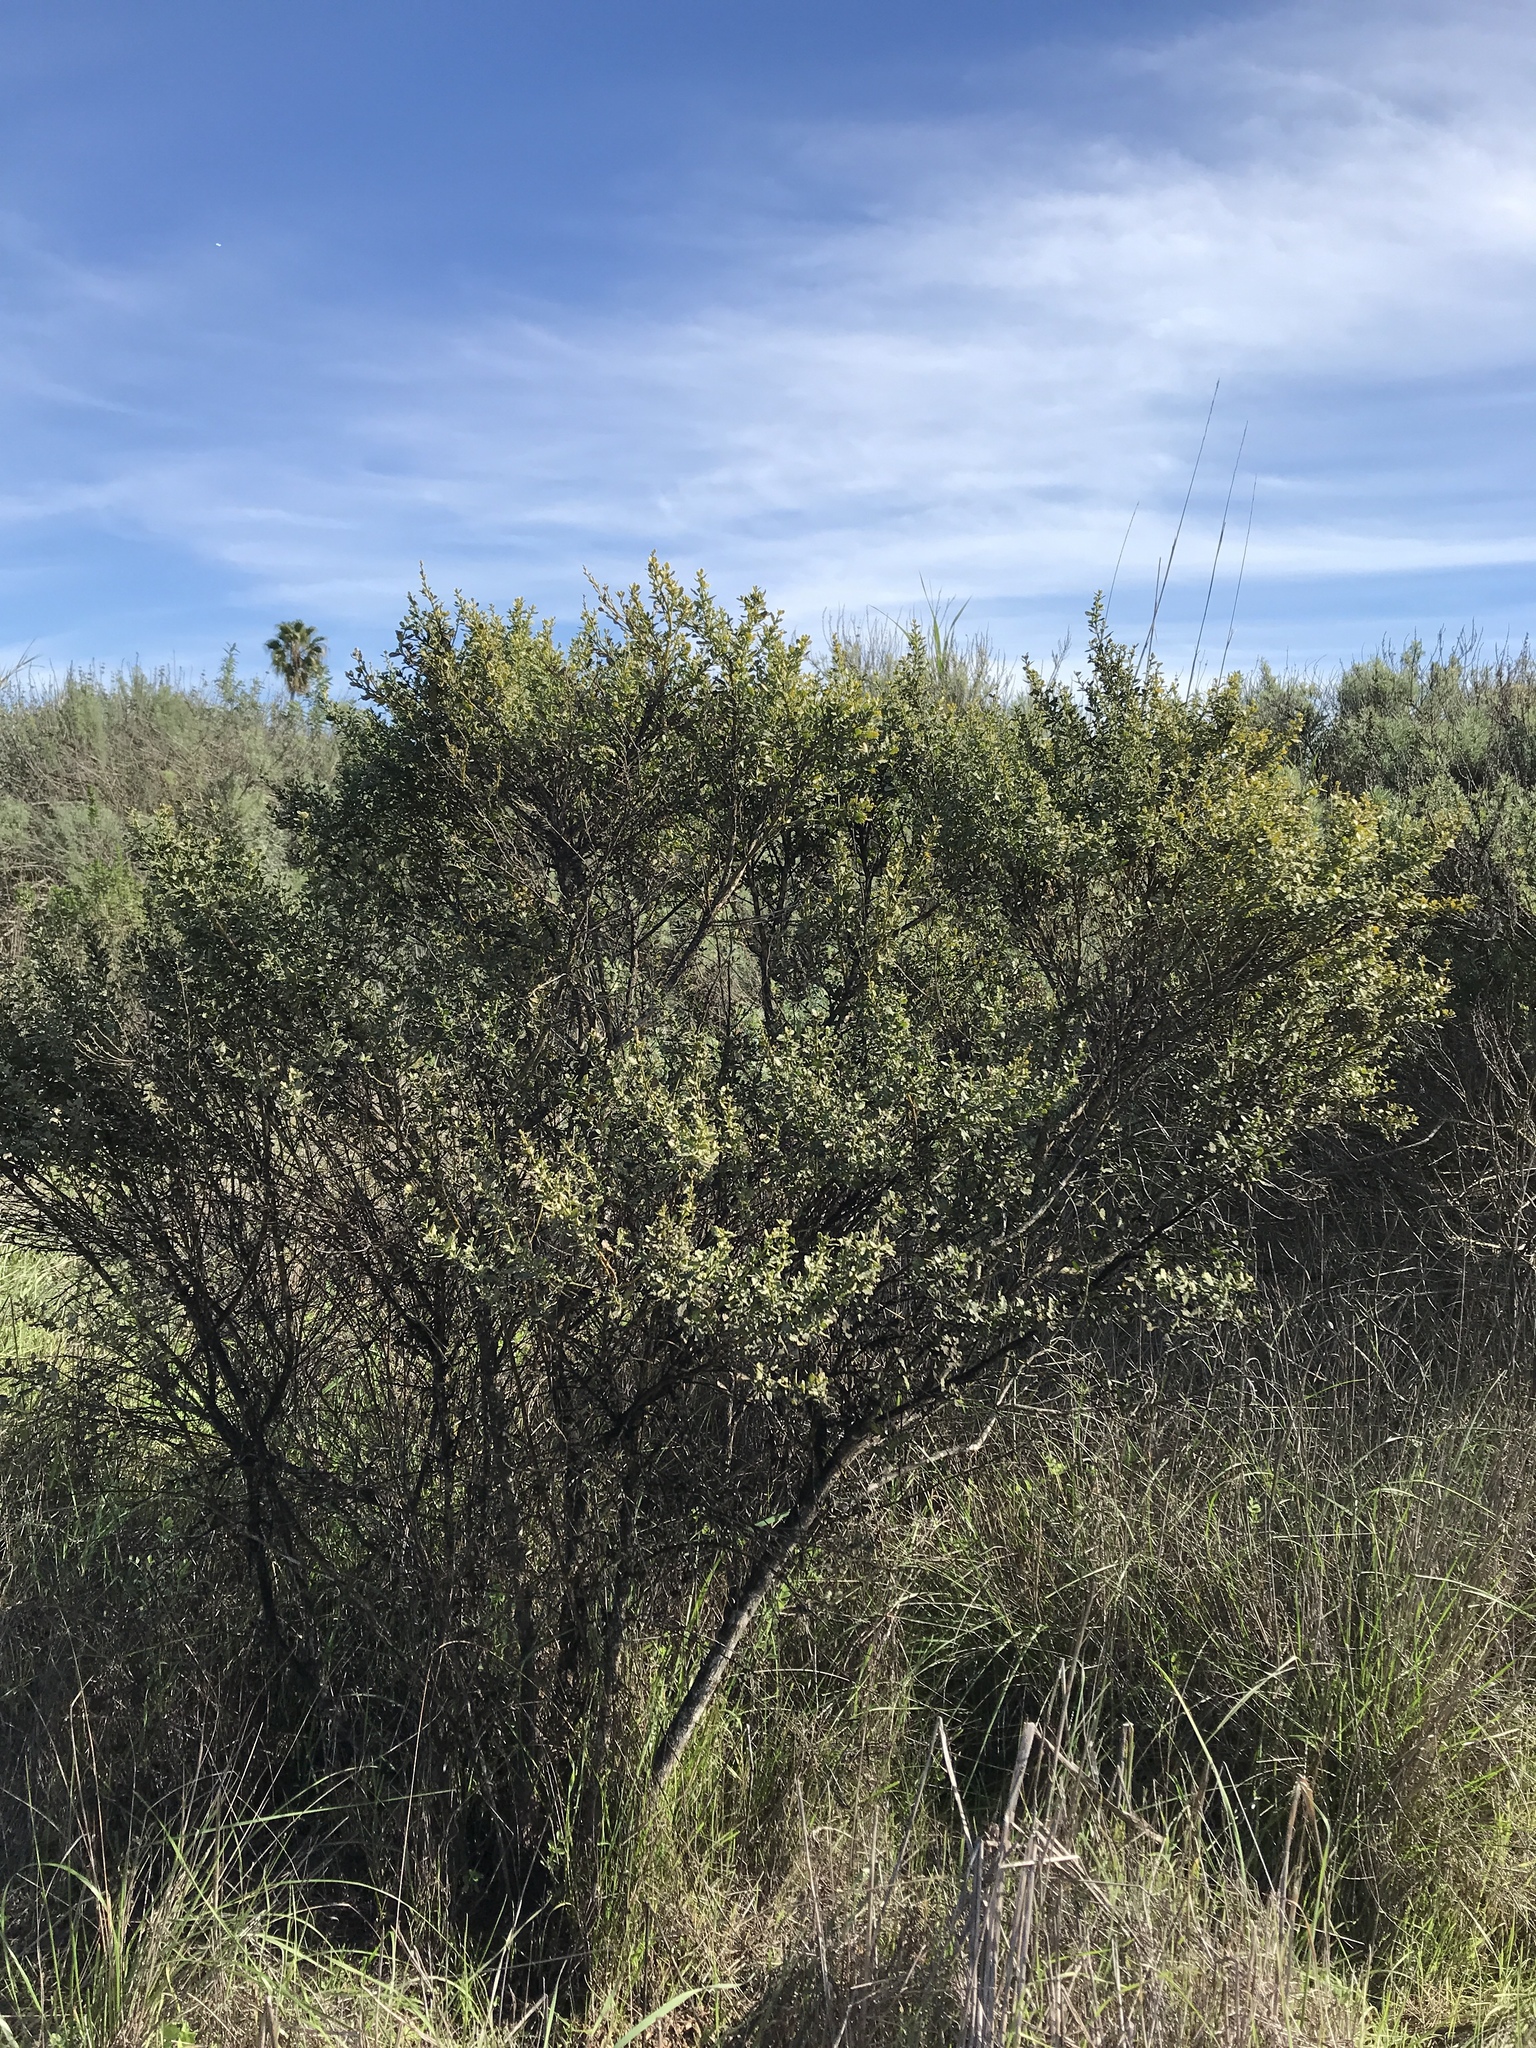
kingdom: Plantae
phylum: Tracheophyta
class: Magnoliopsida
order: Asterales
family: Asteraceae
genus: Baccharis
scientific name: Baccharis pilularis
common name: Coyotebrush
